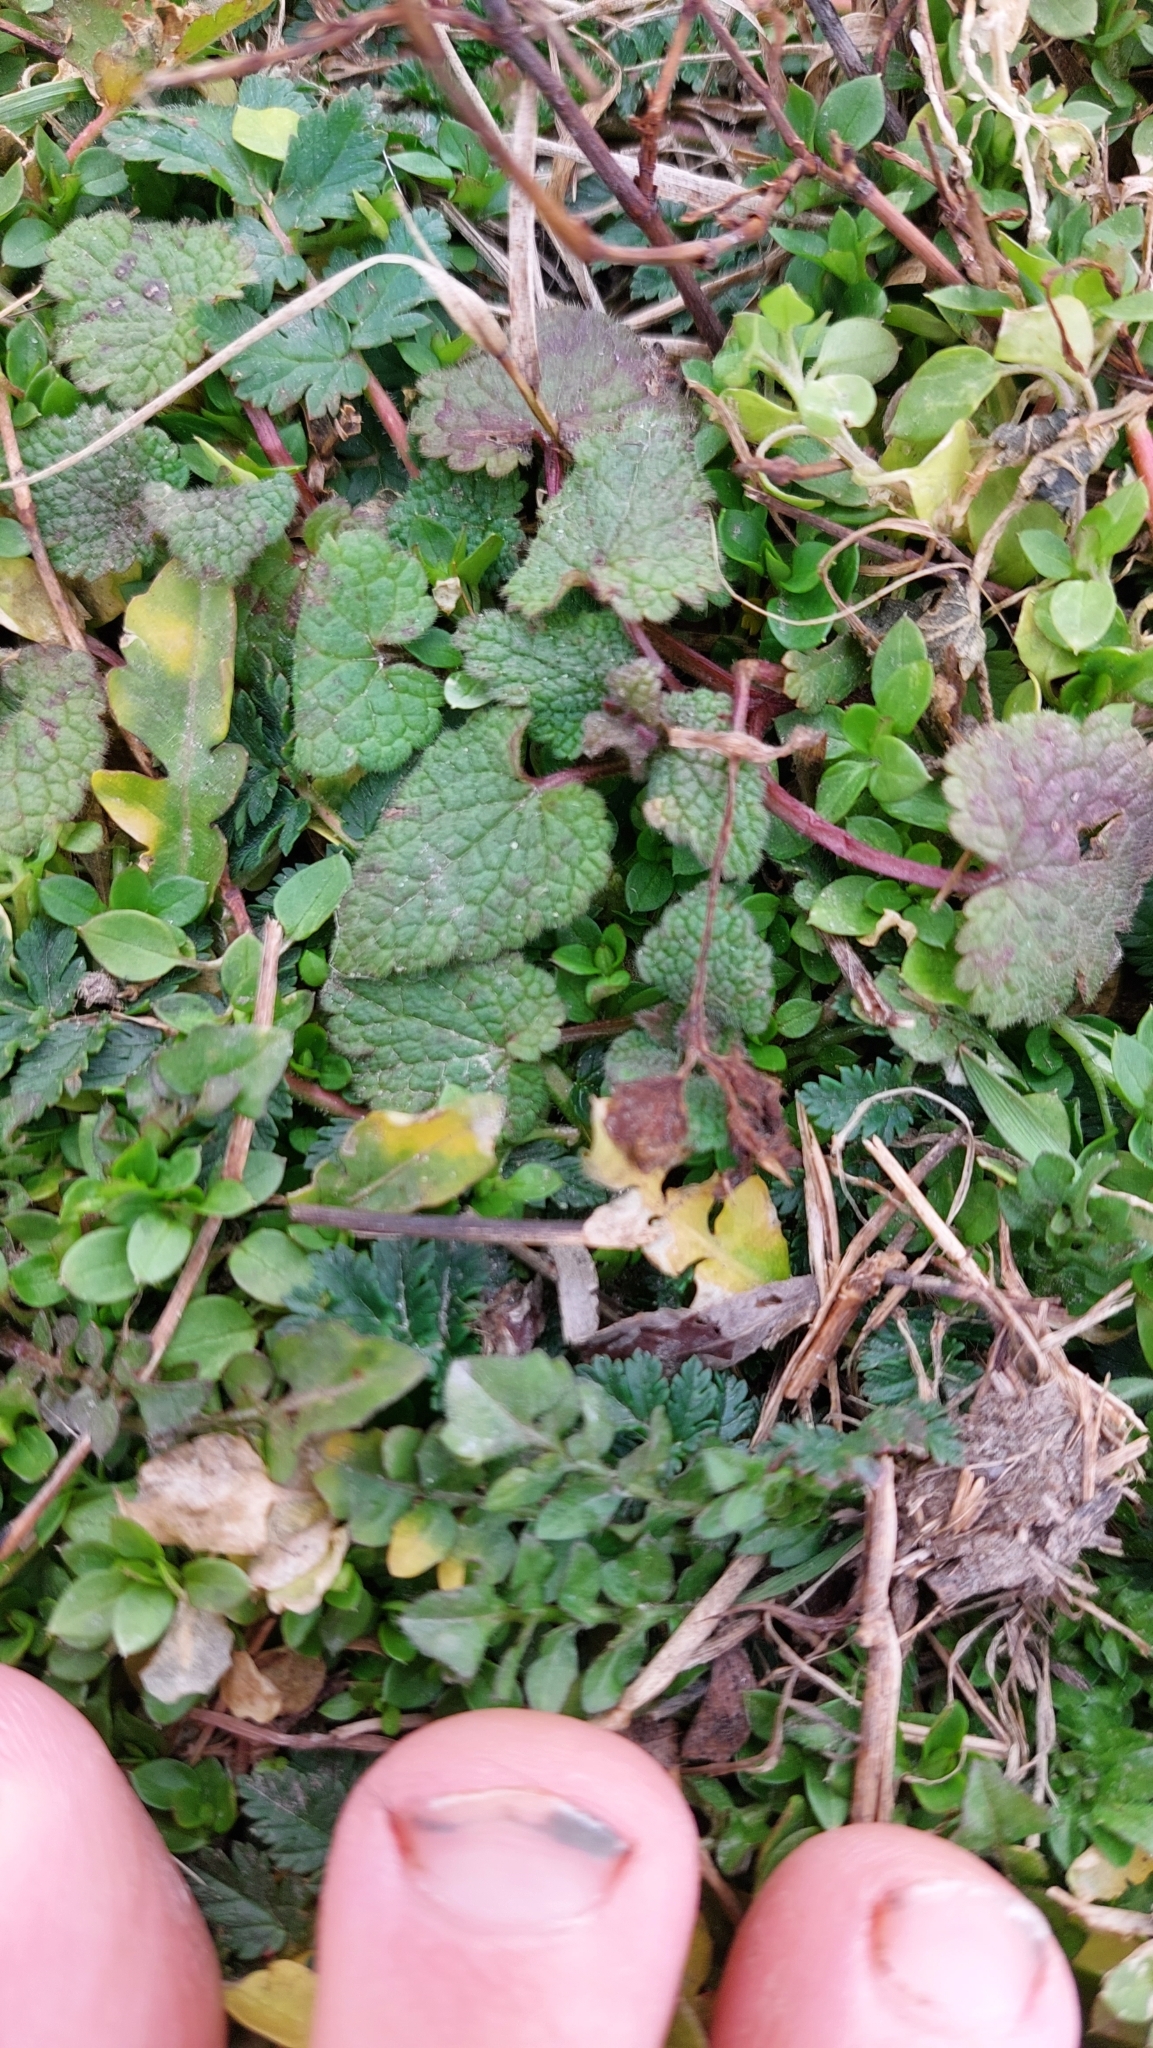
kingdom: Plantae
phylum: Tracheophyta
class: Magnoliopsida
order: Lamiales
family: Lamiaceae
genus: Lamium
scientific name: Lamium purpureum
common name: Red dead-nettle
